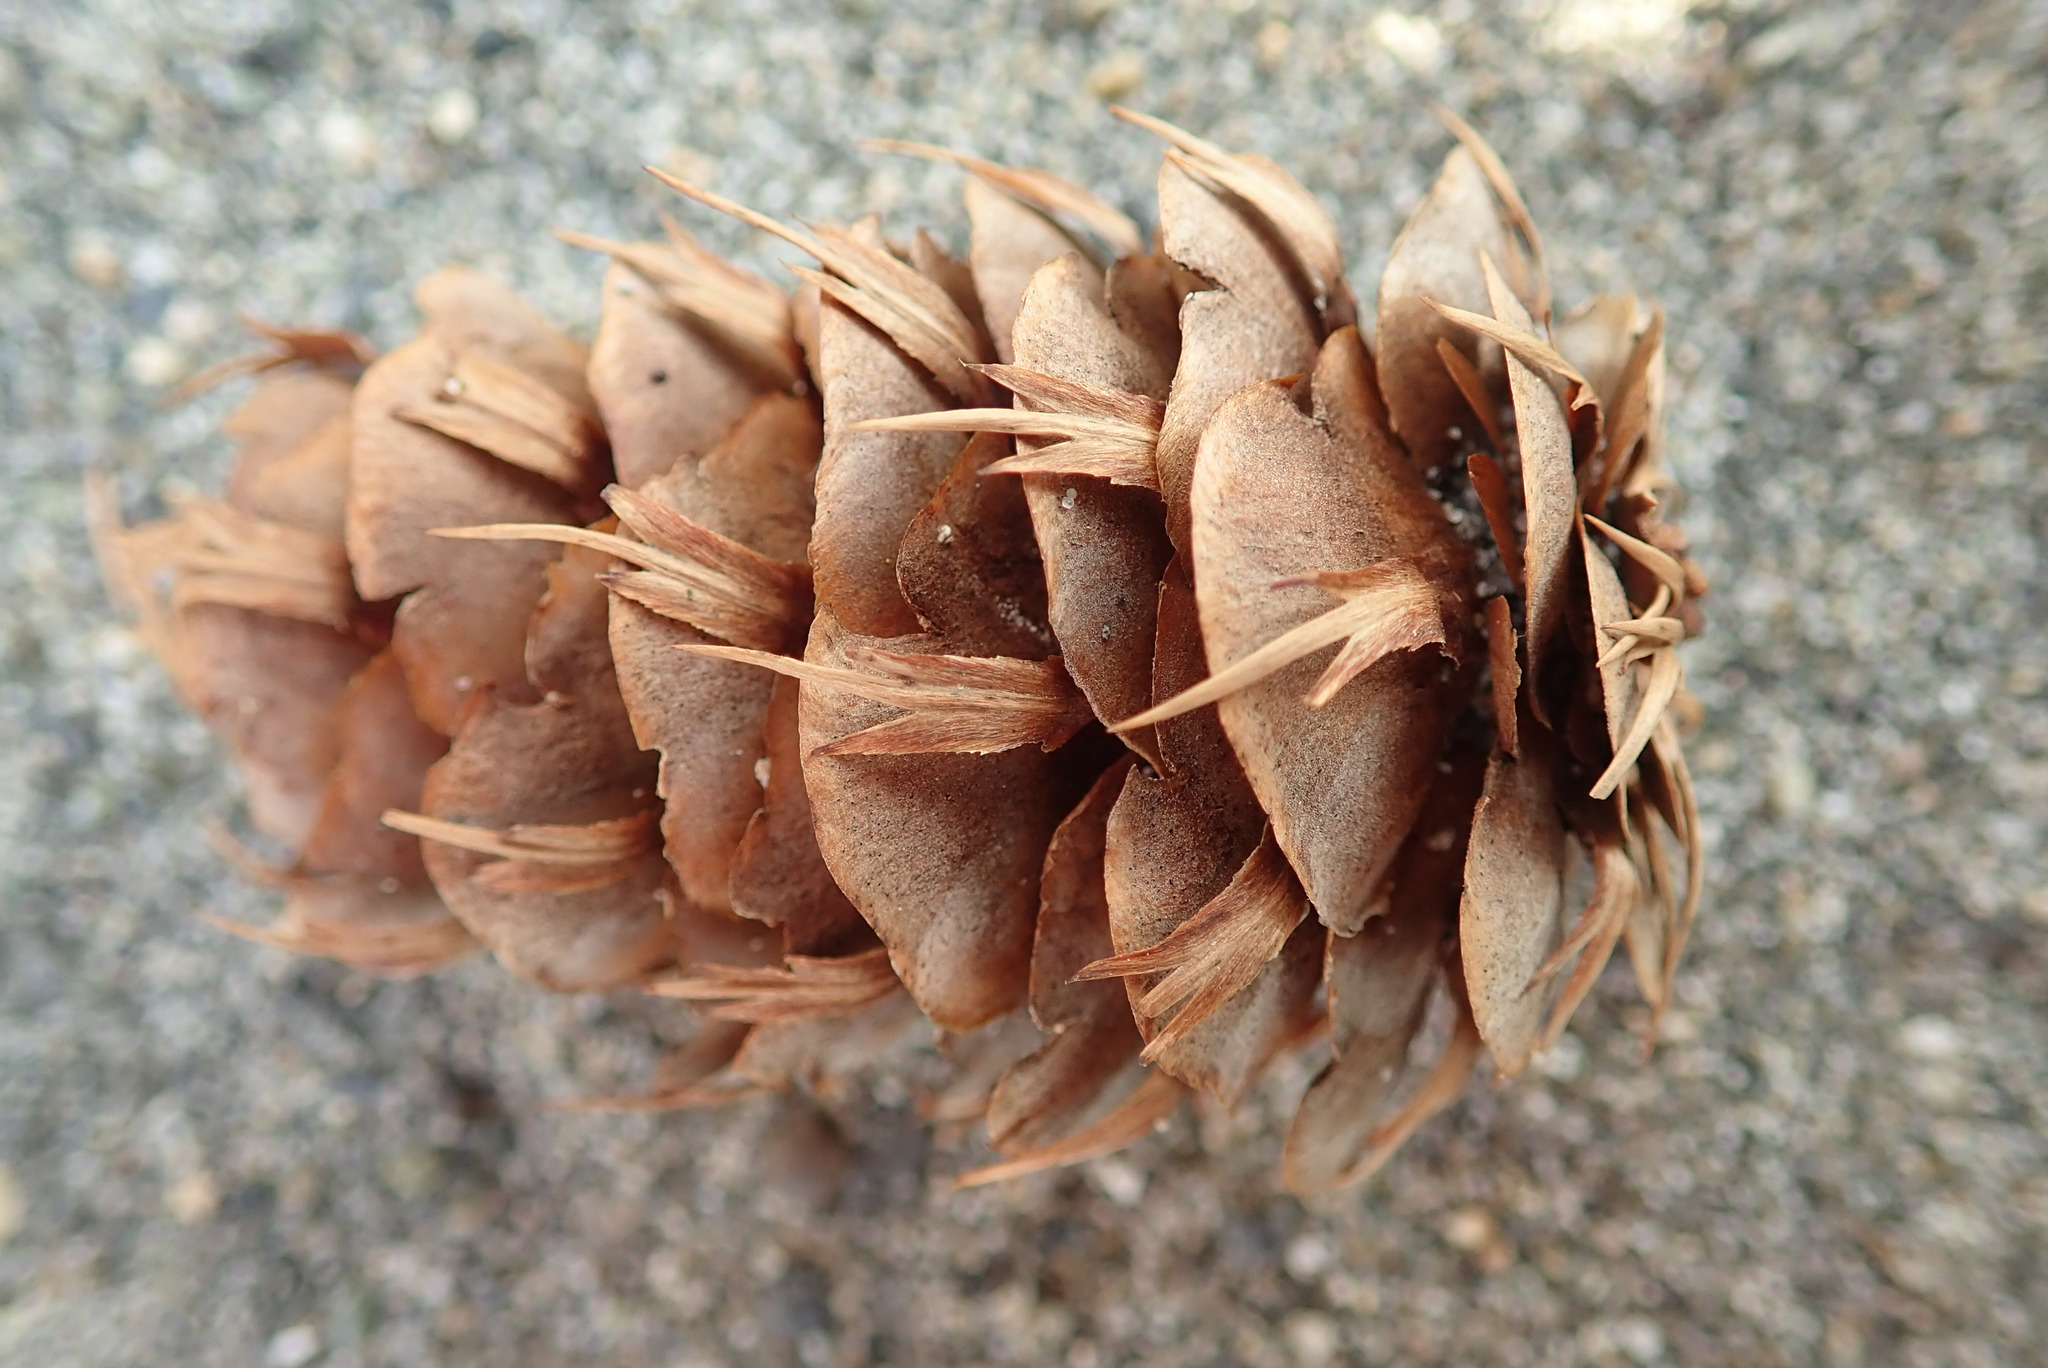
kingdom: Plantae
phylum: Tracheophyta
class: Pinopsida
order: Pinales
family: Pinaceae
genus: Pseudotsuga
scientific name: Pseudotsuga menziesii
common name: Douglas fir
